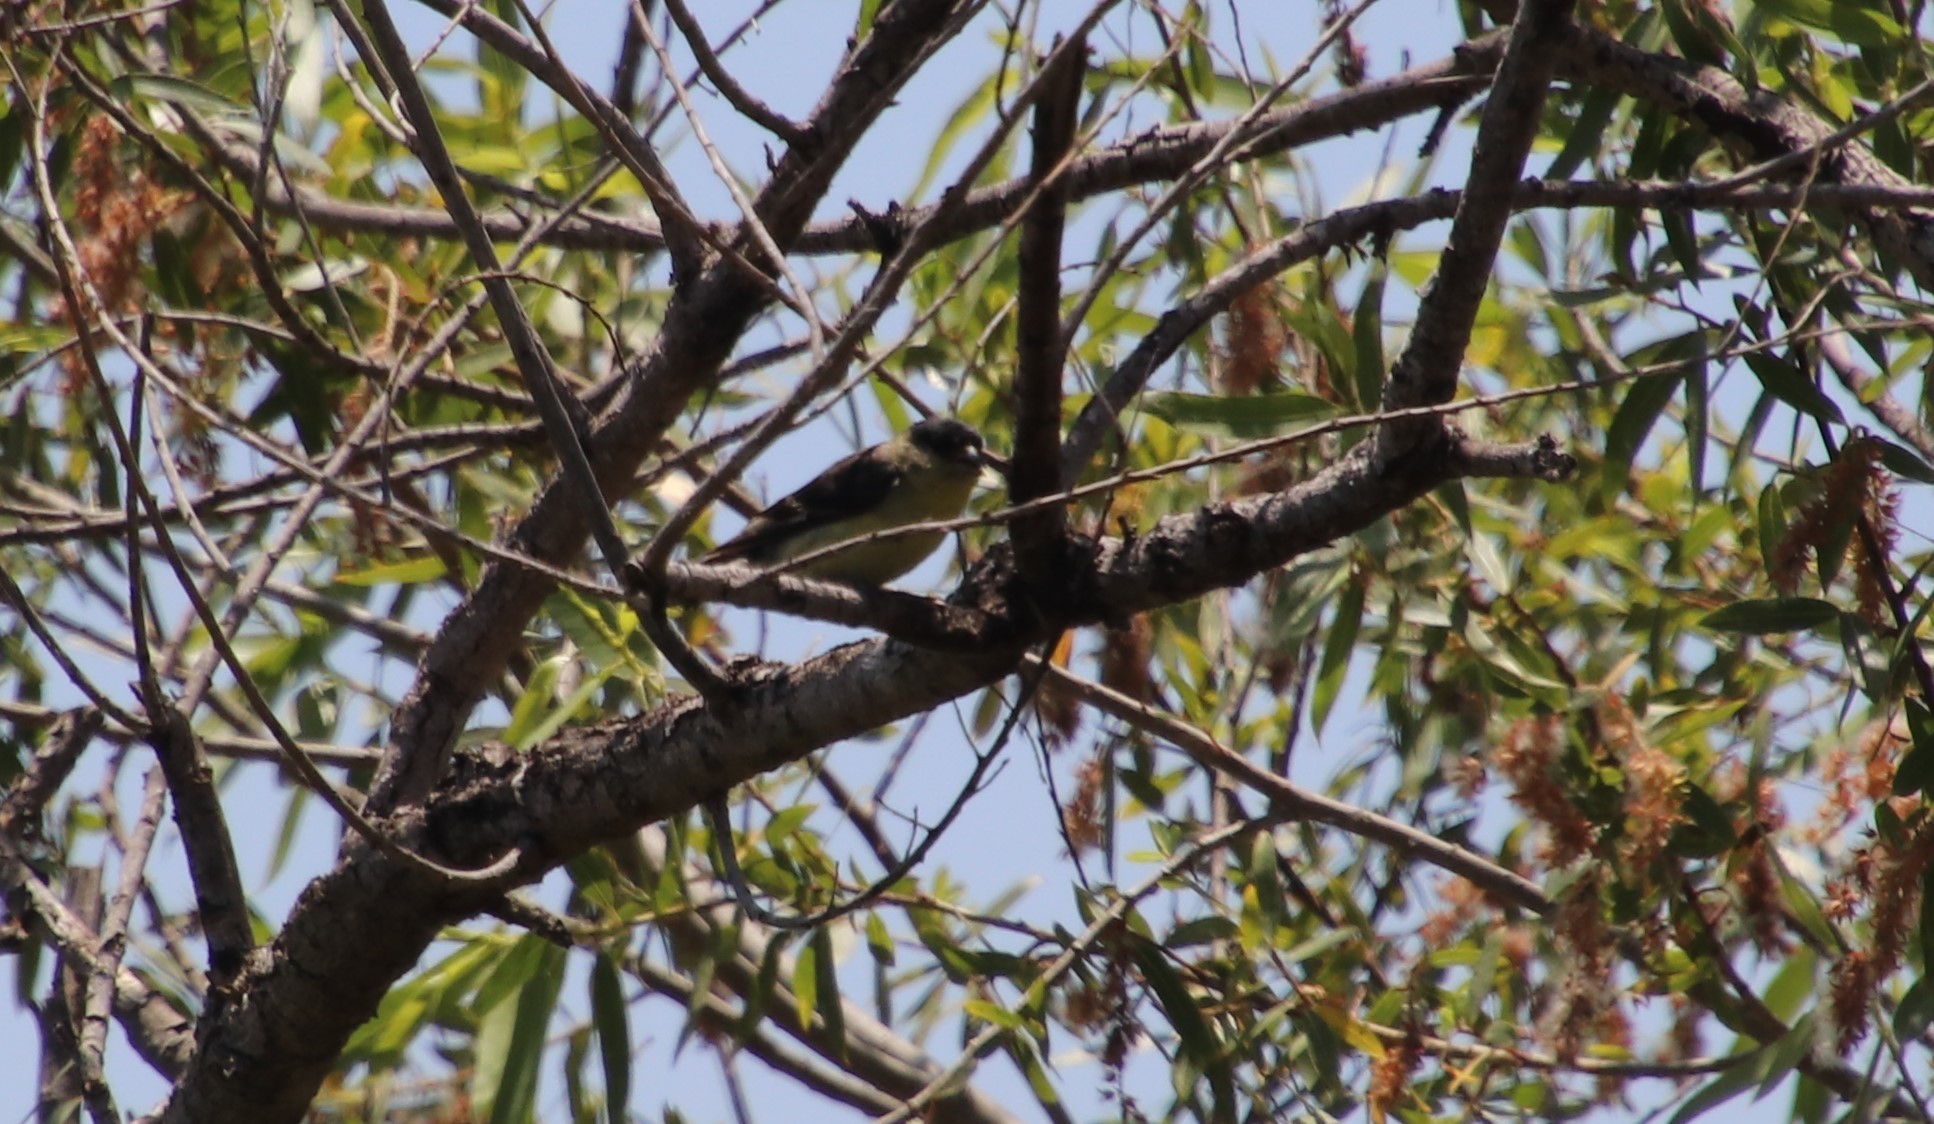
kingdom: Animalia
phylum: Chordata
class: Aves
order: Passeriformes
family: Fringillidae
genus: Spinus
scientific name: Spinus psaltria
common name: Lesser goldfinch
